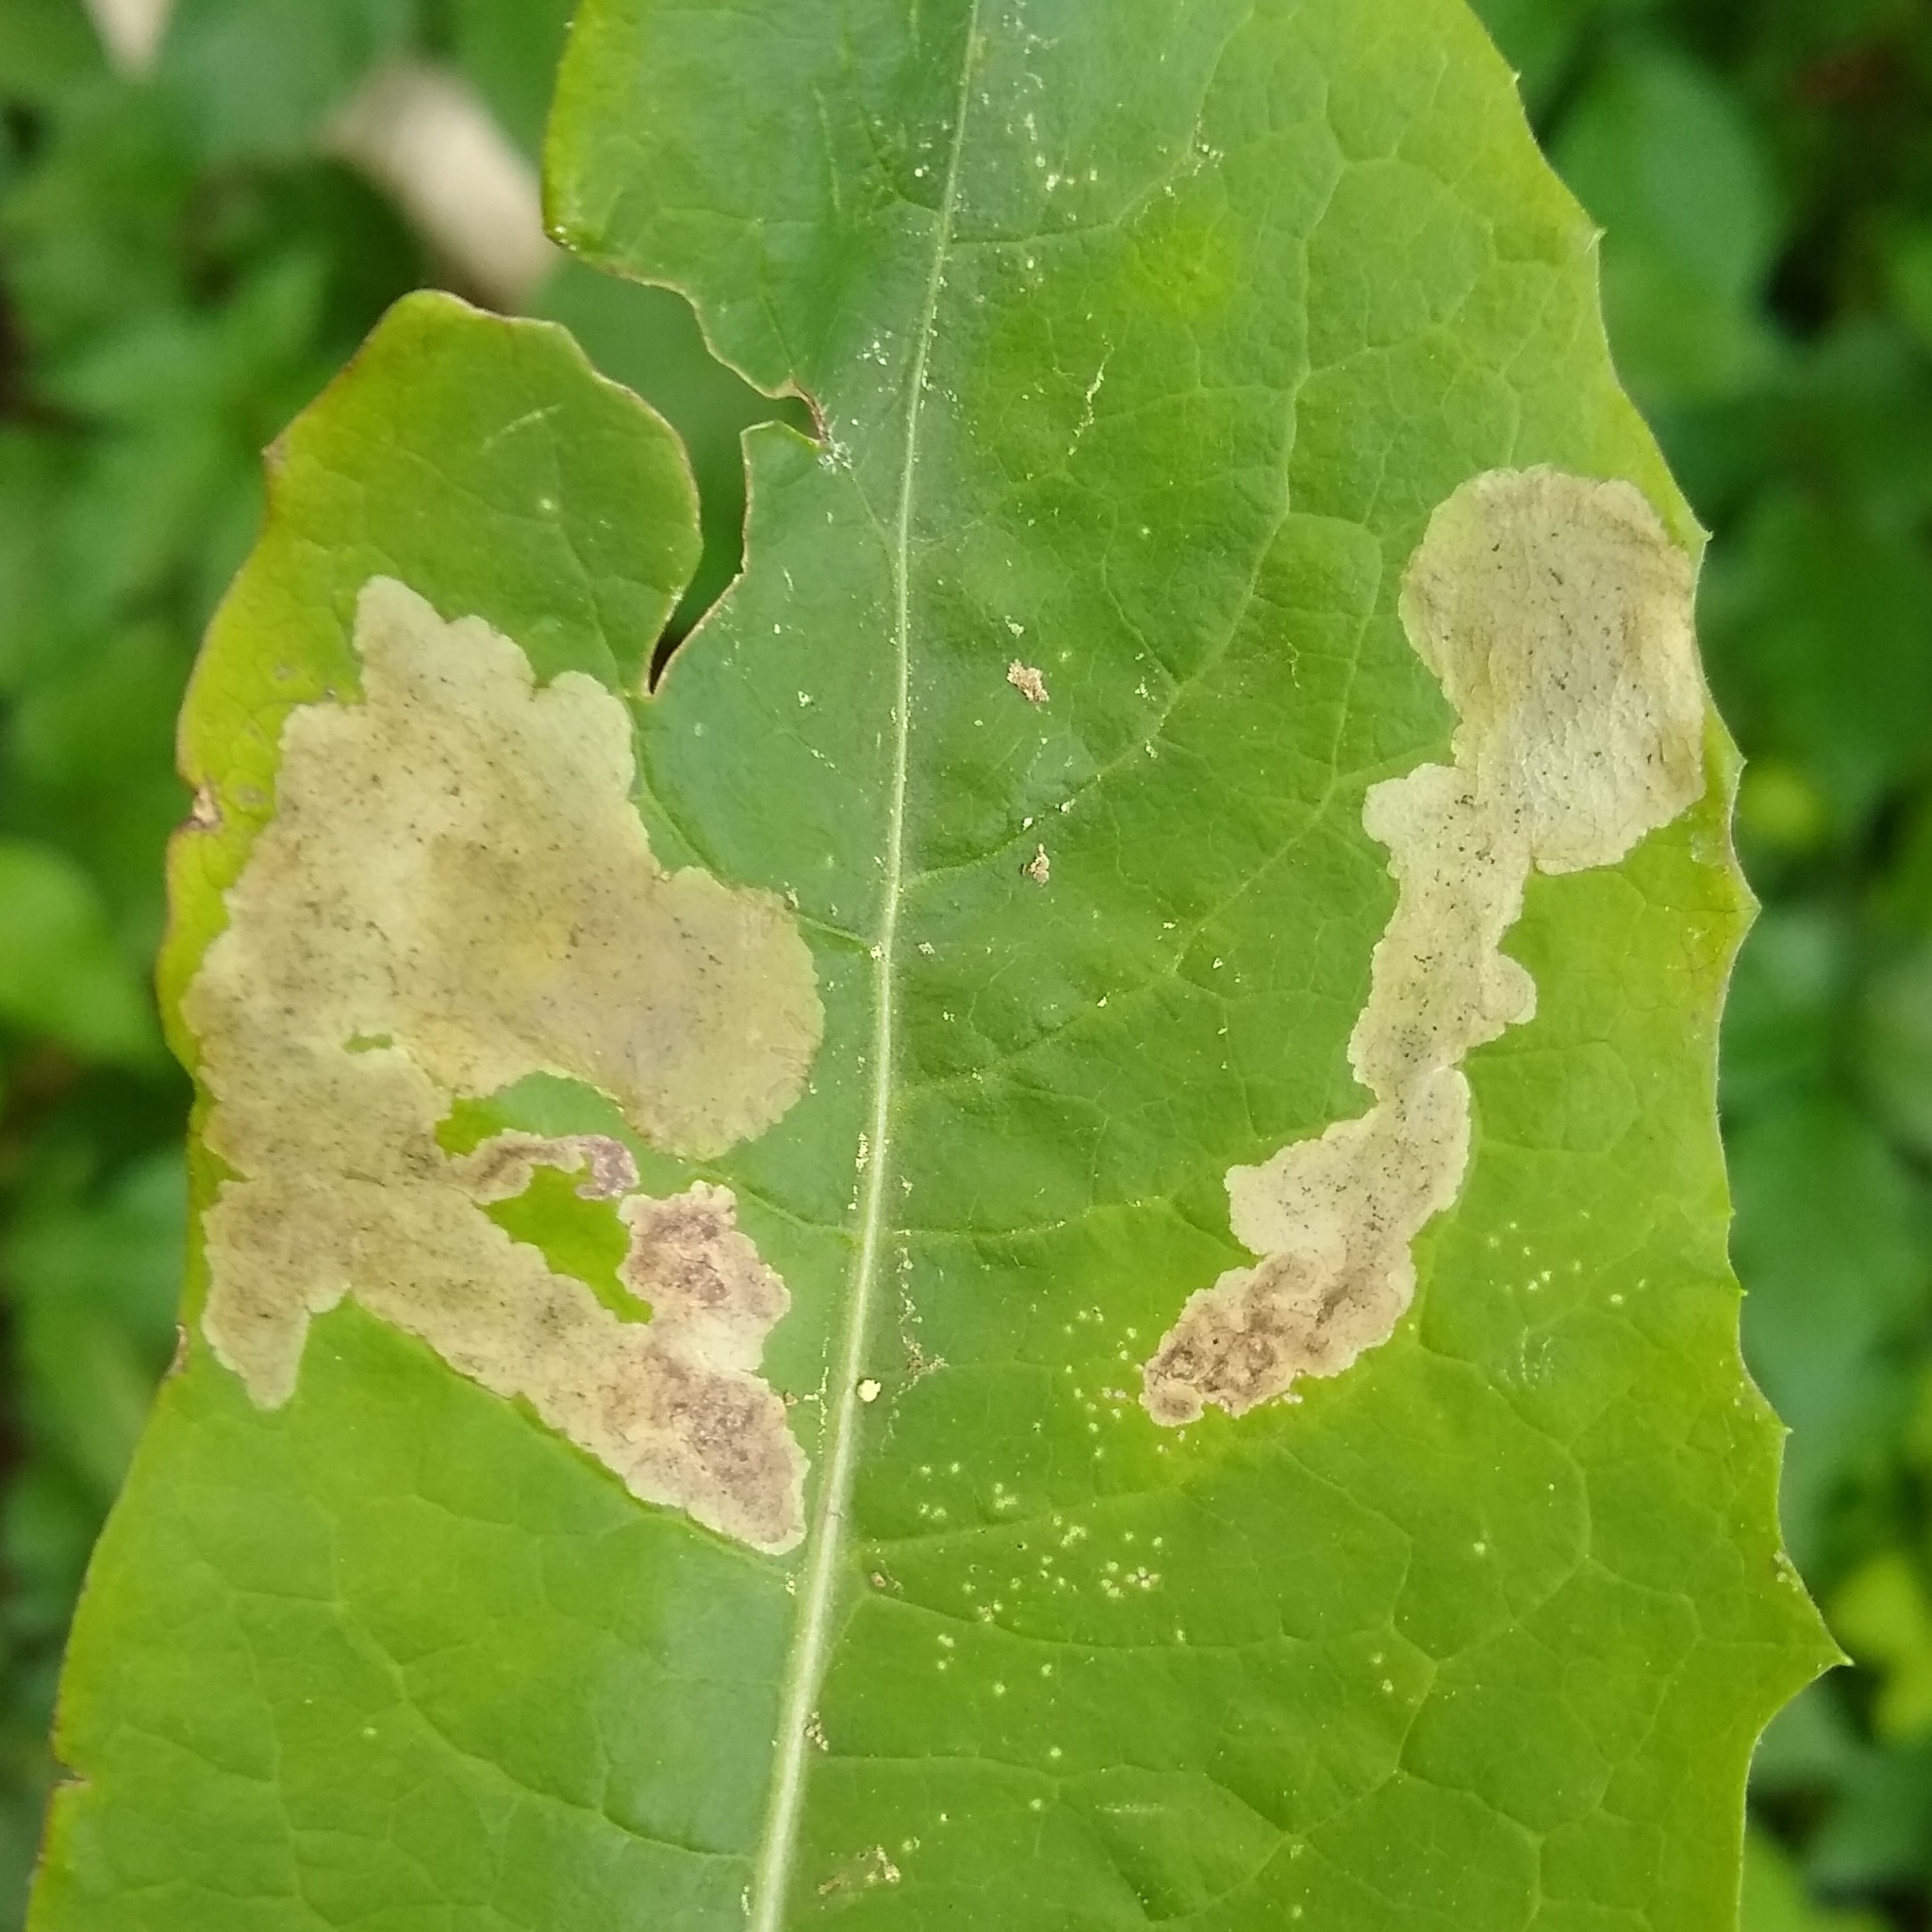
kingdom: Animalia
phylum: Arthropoda
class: Insecta
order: Diptera
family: Agromyzidae
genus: Liriomyza
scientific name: Liriomyza taraxaci
